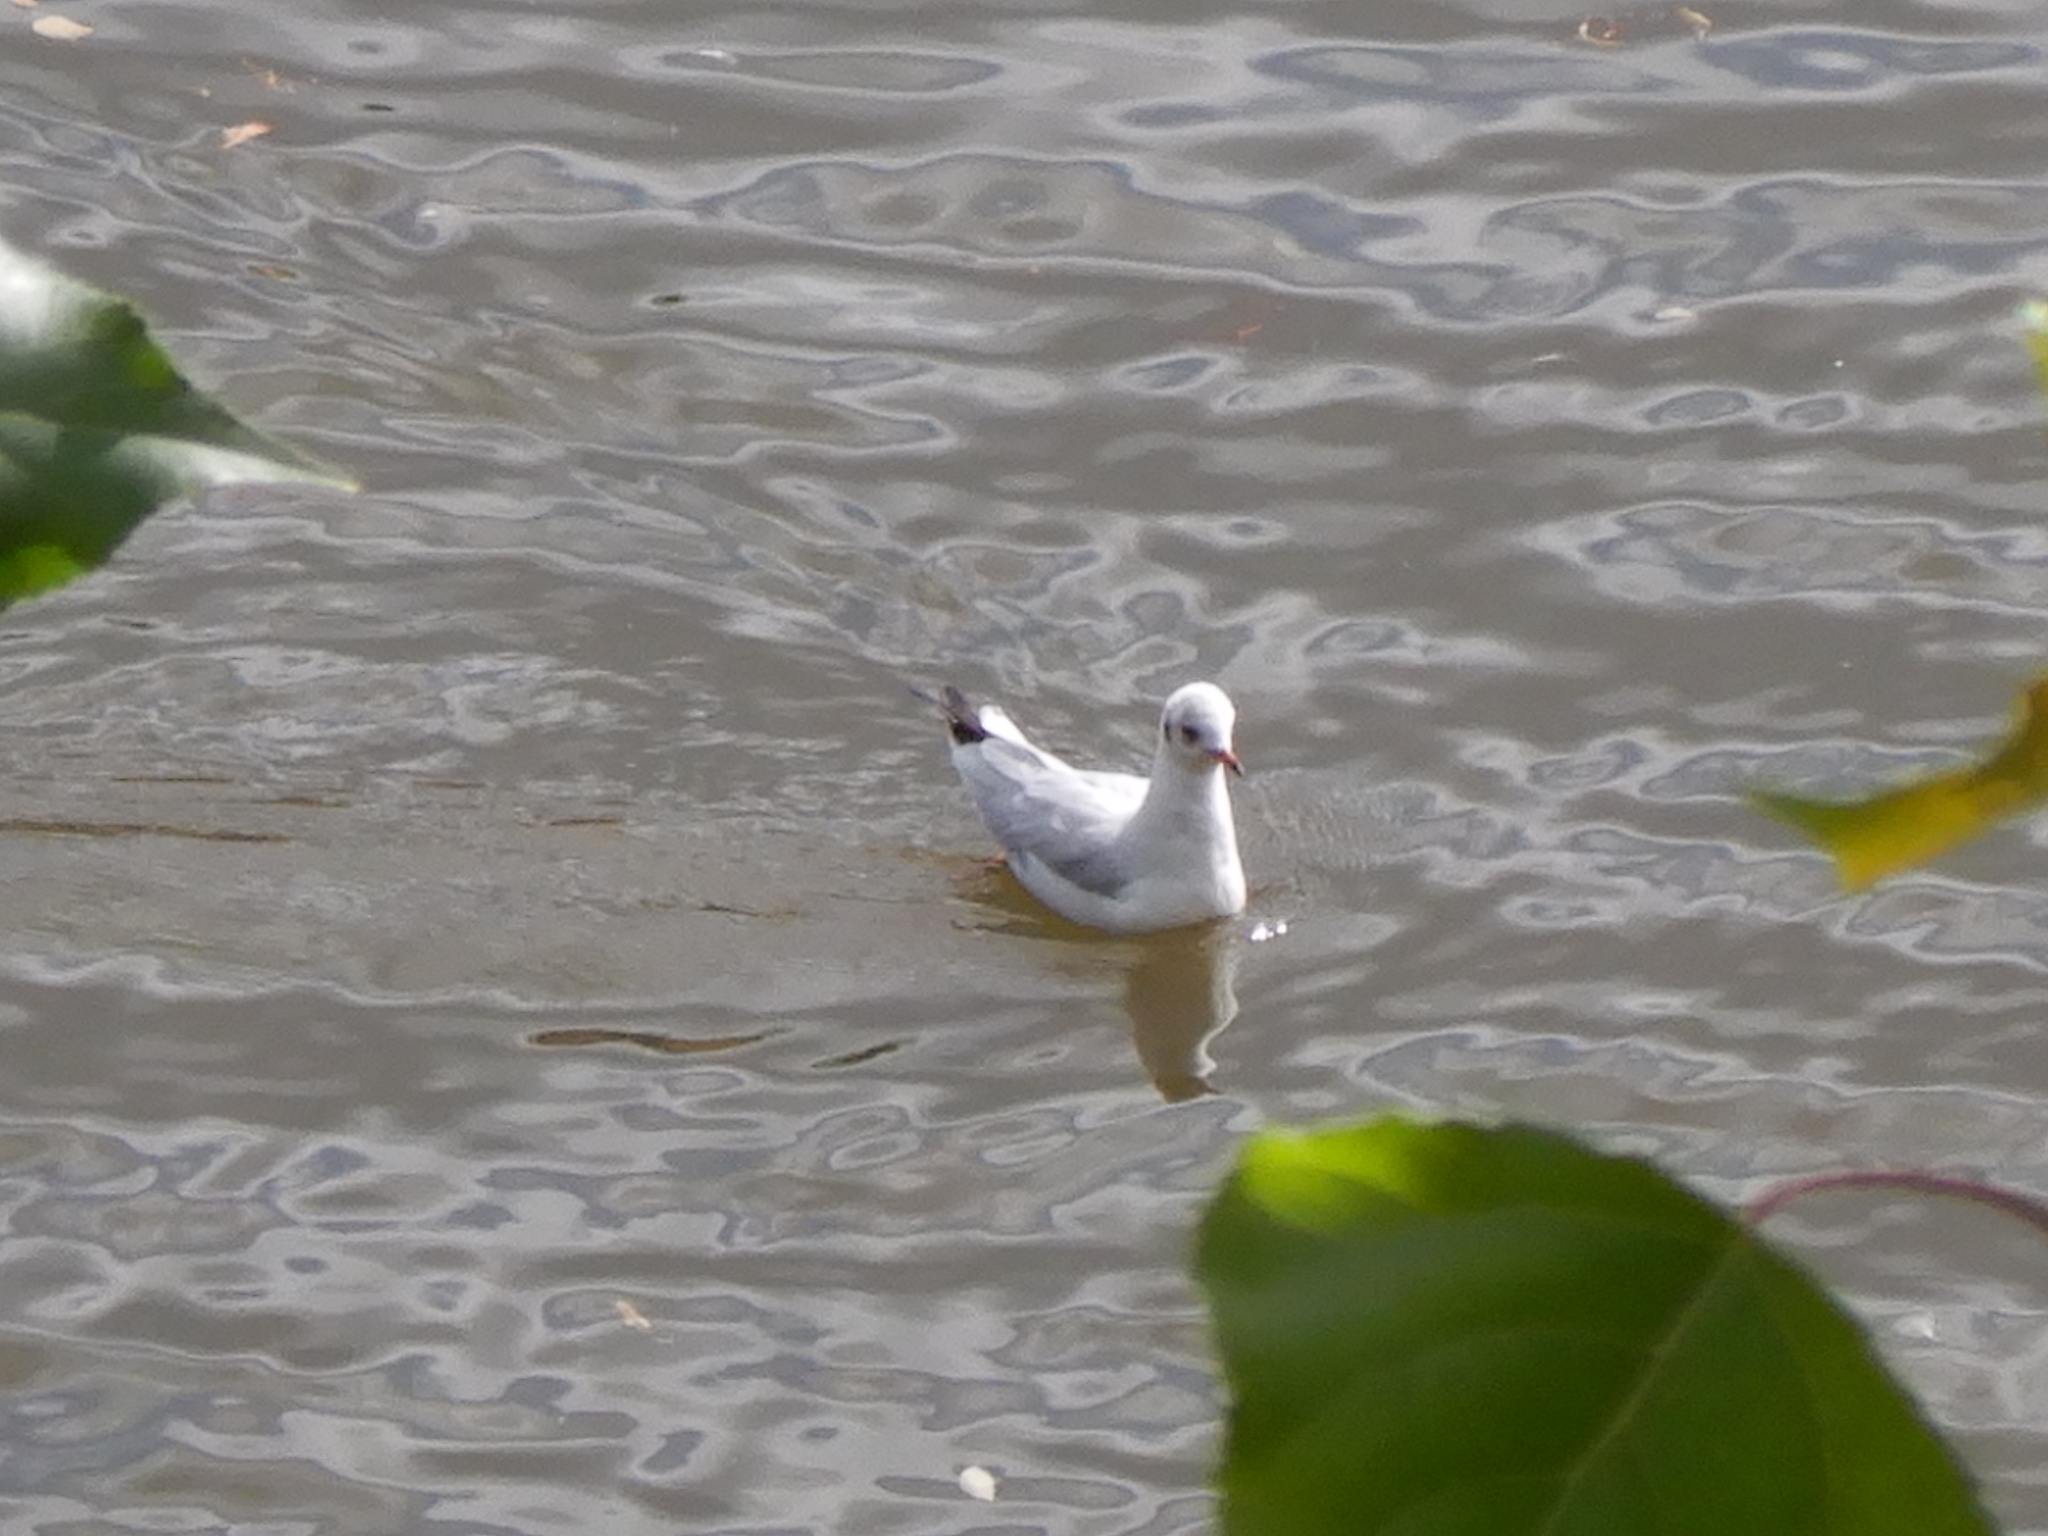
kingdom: Animalia
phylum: Chordata
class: Aves
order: Charadriiformes
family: Laridae
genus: Chroicocephalus
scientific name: Chroicocephalus ridibundus
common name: Black-headed gull
